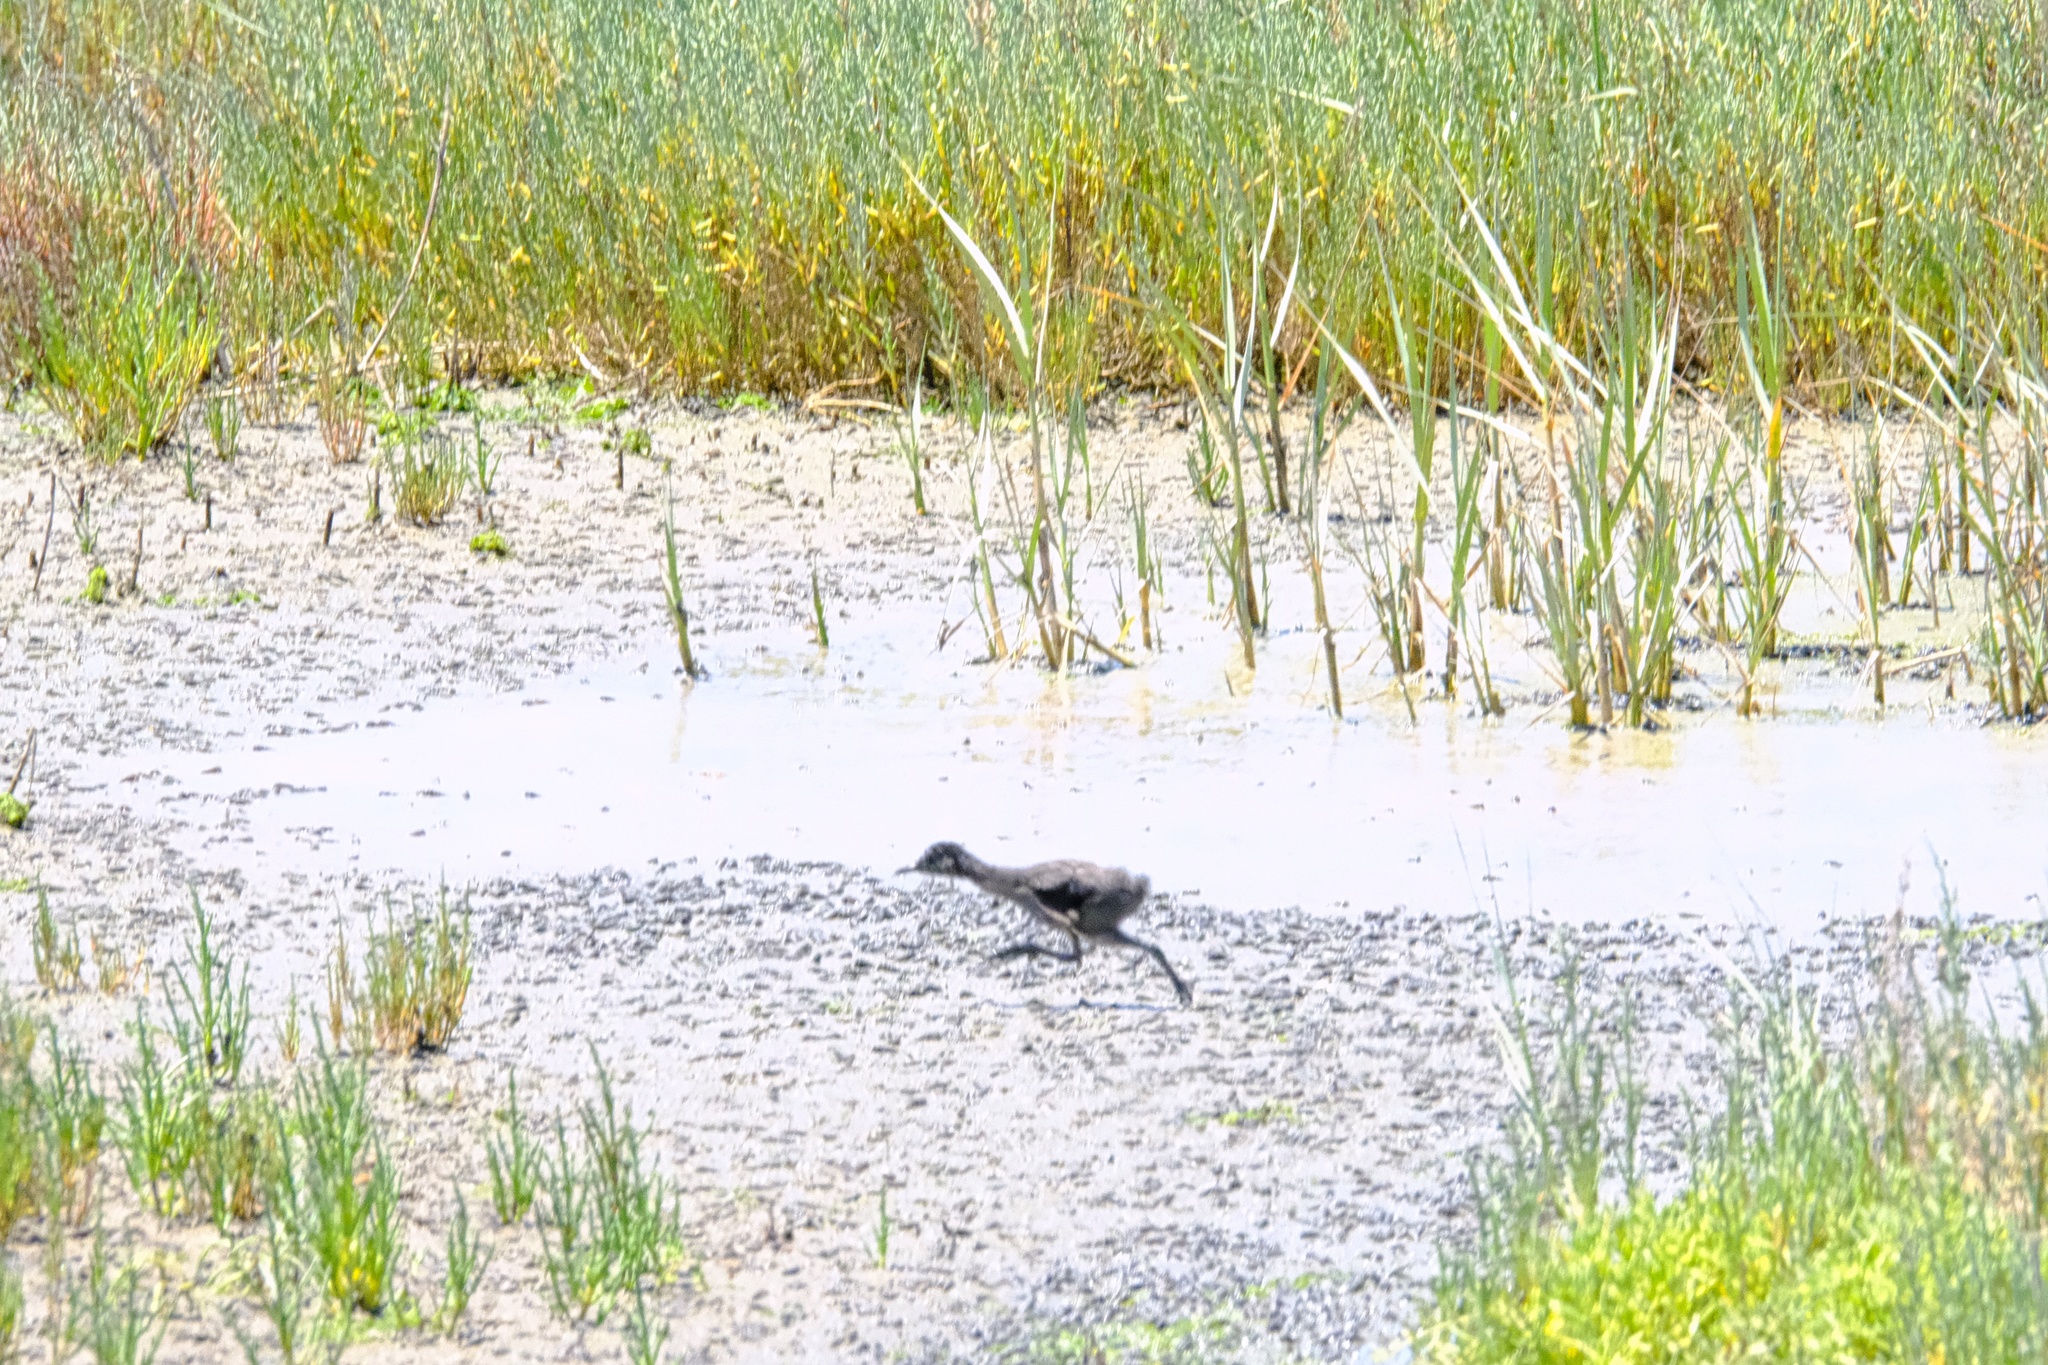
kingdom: Animalia
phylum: Chordata
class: Aves
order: Gruiformes
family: Rallidae
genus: Rallus
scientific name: Rallus obsoletus
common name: Ridgway's rail
